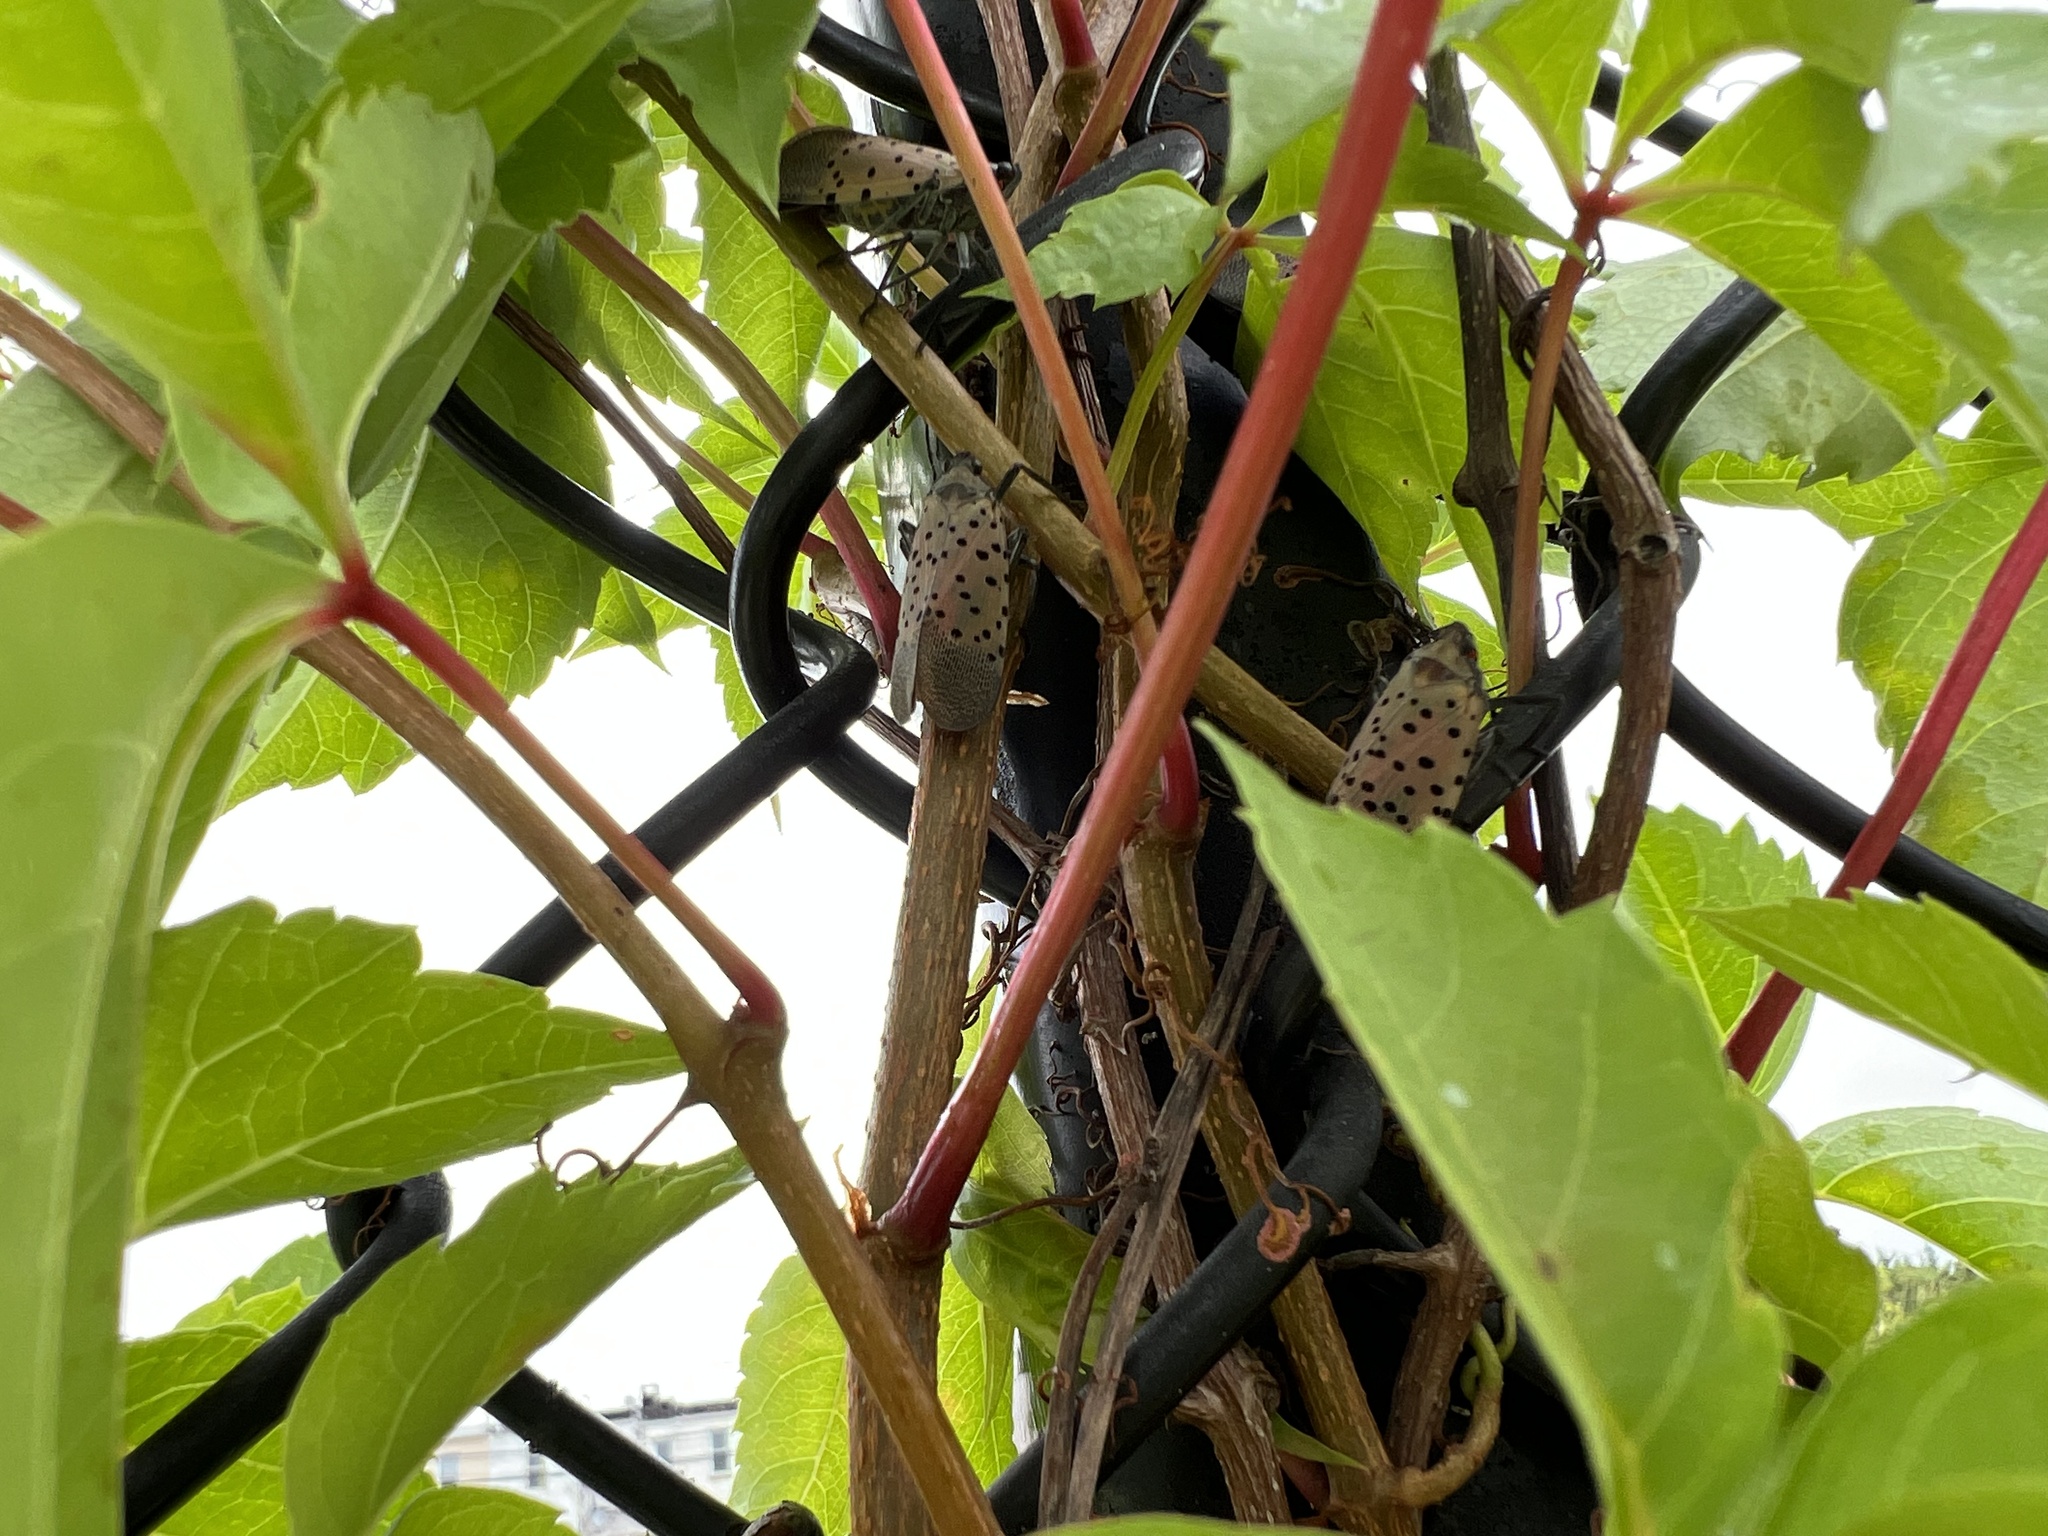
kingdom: Animalia
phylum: Arthropoda
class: Insecta
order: Hemiptera
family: Fulgoridae
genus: Lycorma
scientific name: Lycorma delicatula
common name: Spotted lanternfly
